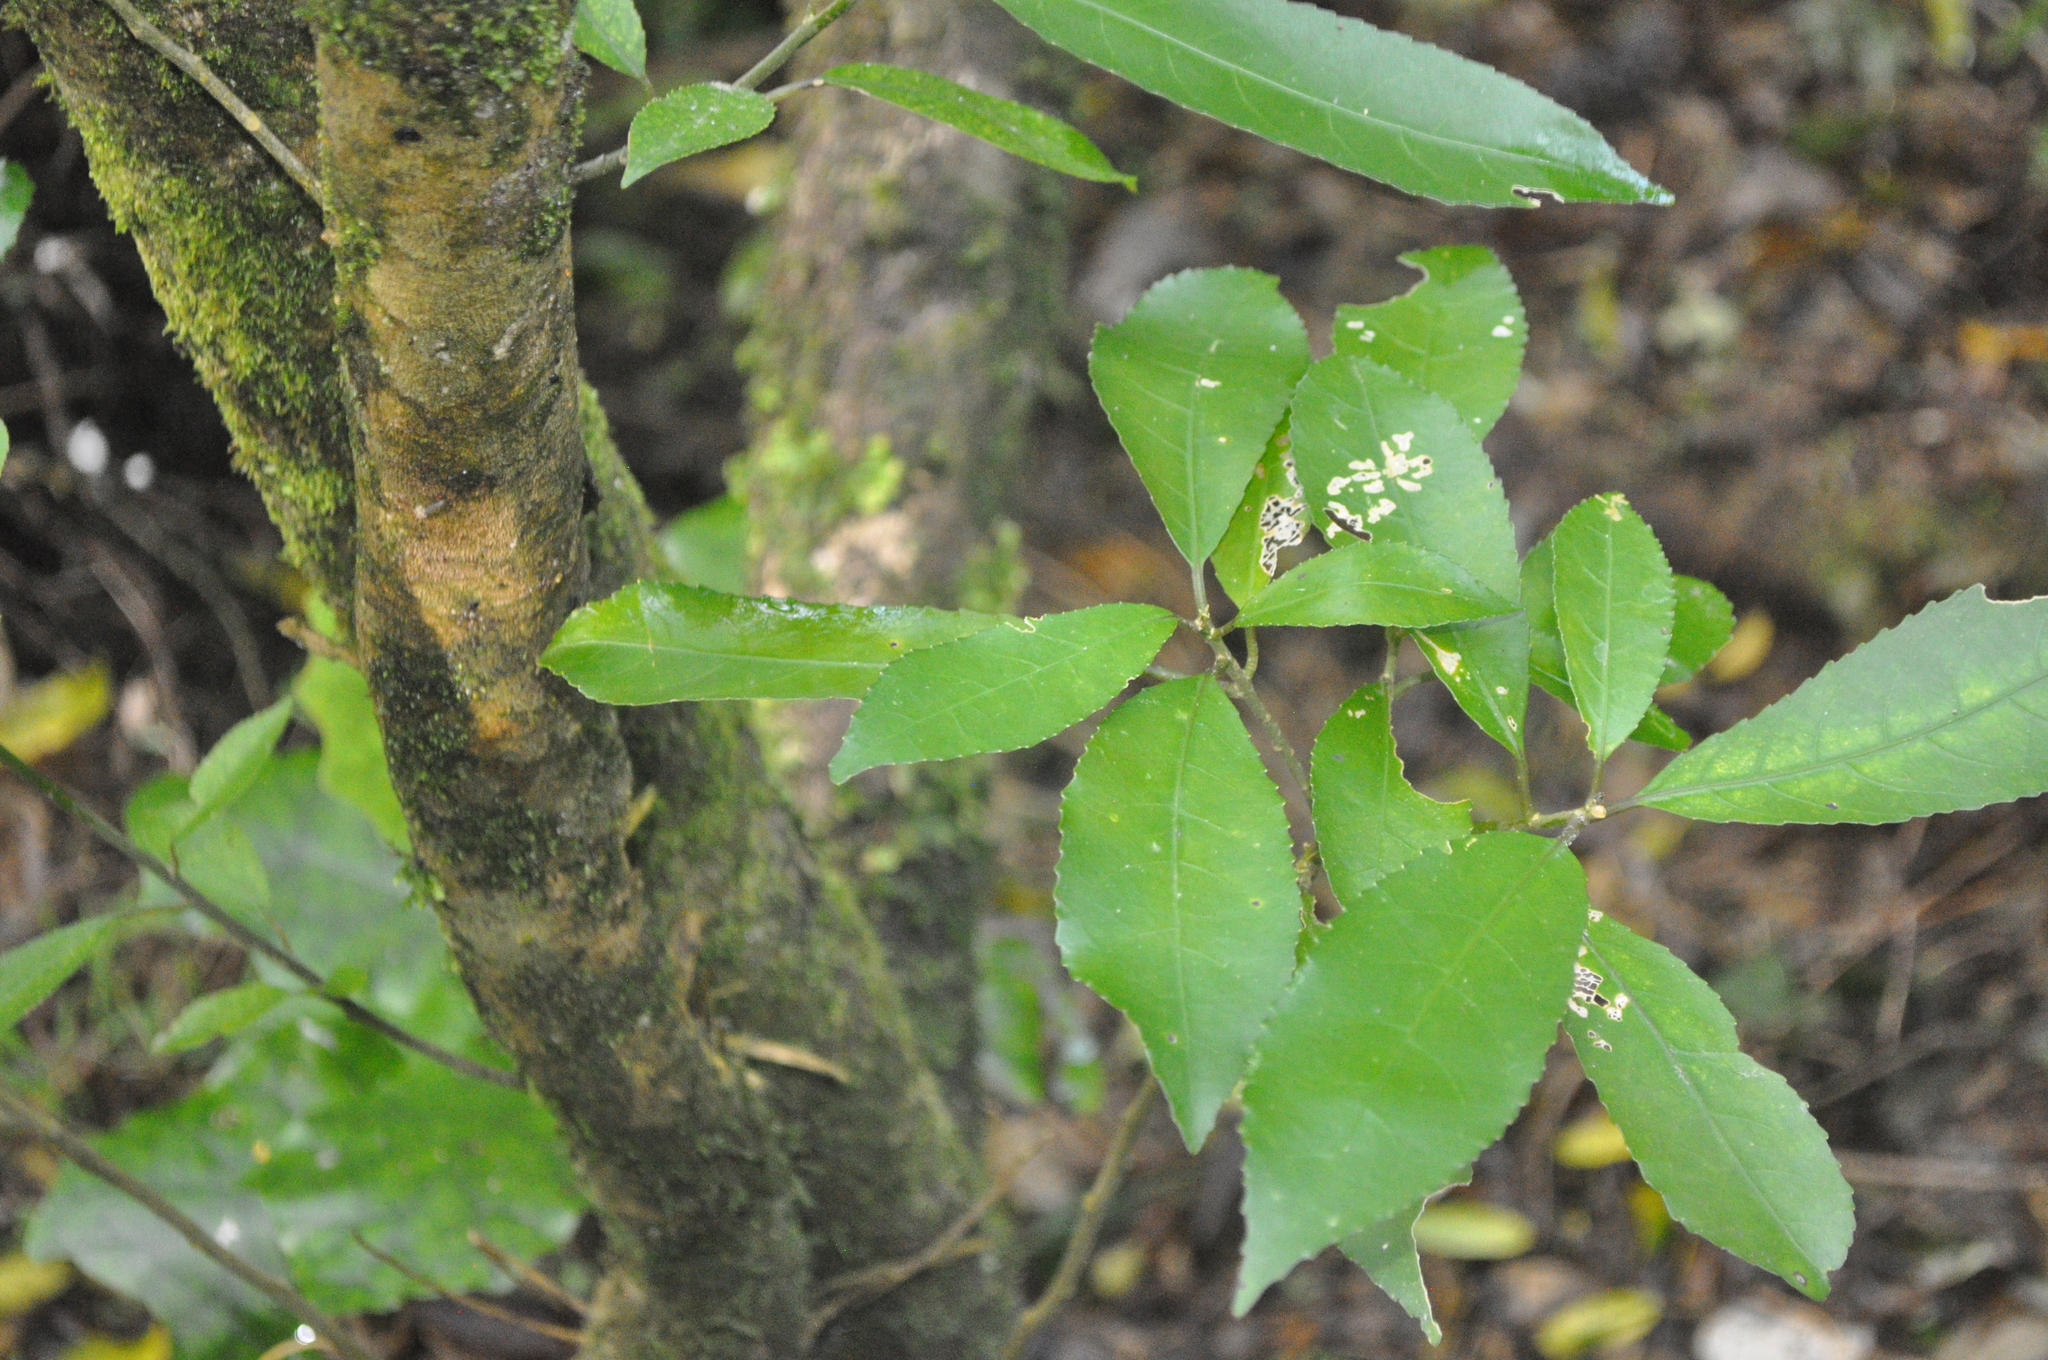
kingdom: Plantae
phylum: Tracheophyta
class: Magnoliopsida
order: Malpighiales
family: Violaceae
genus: Melicytus
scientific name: Melicytus ramiflorus
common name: Mahoe
